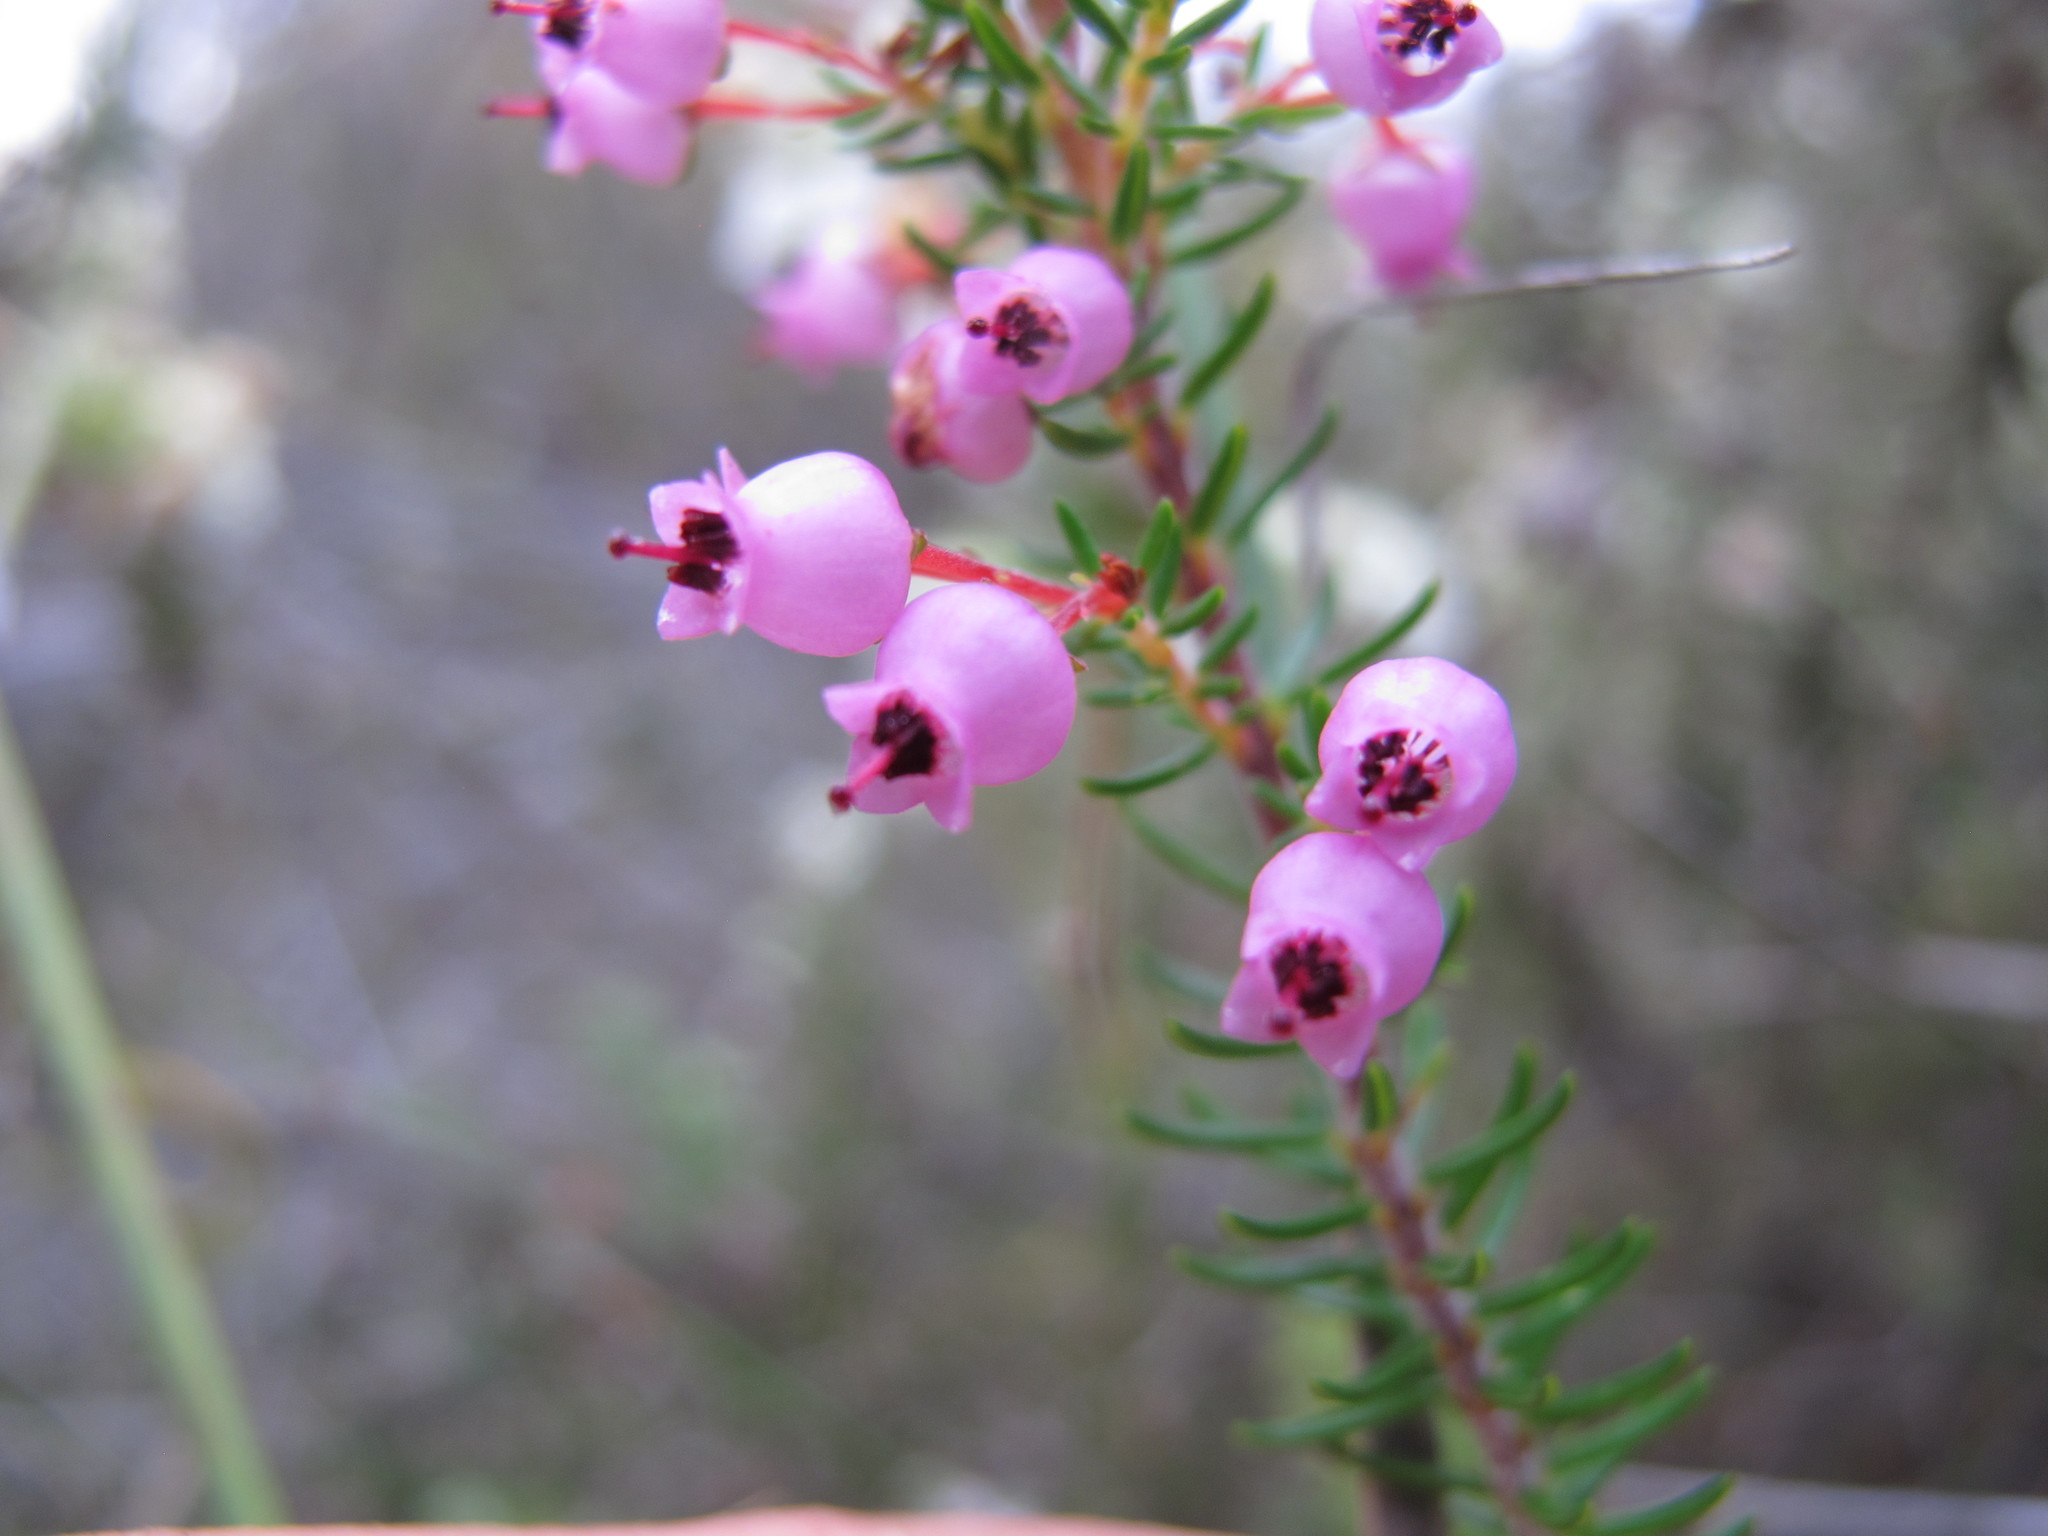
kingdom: Plantae
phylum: Tracheophyta
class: Magnoliopsida
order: Ericales
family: Ericaceae
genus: Erica
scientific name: Erica lateralis
